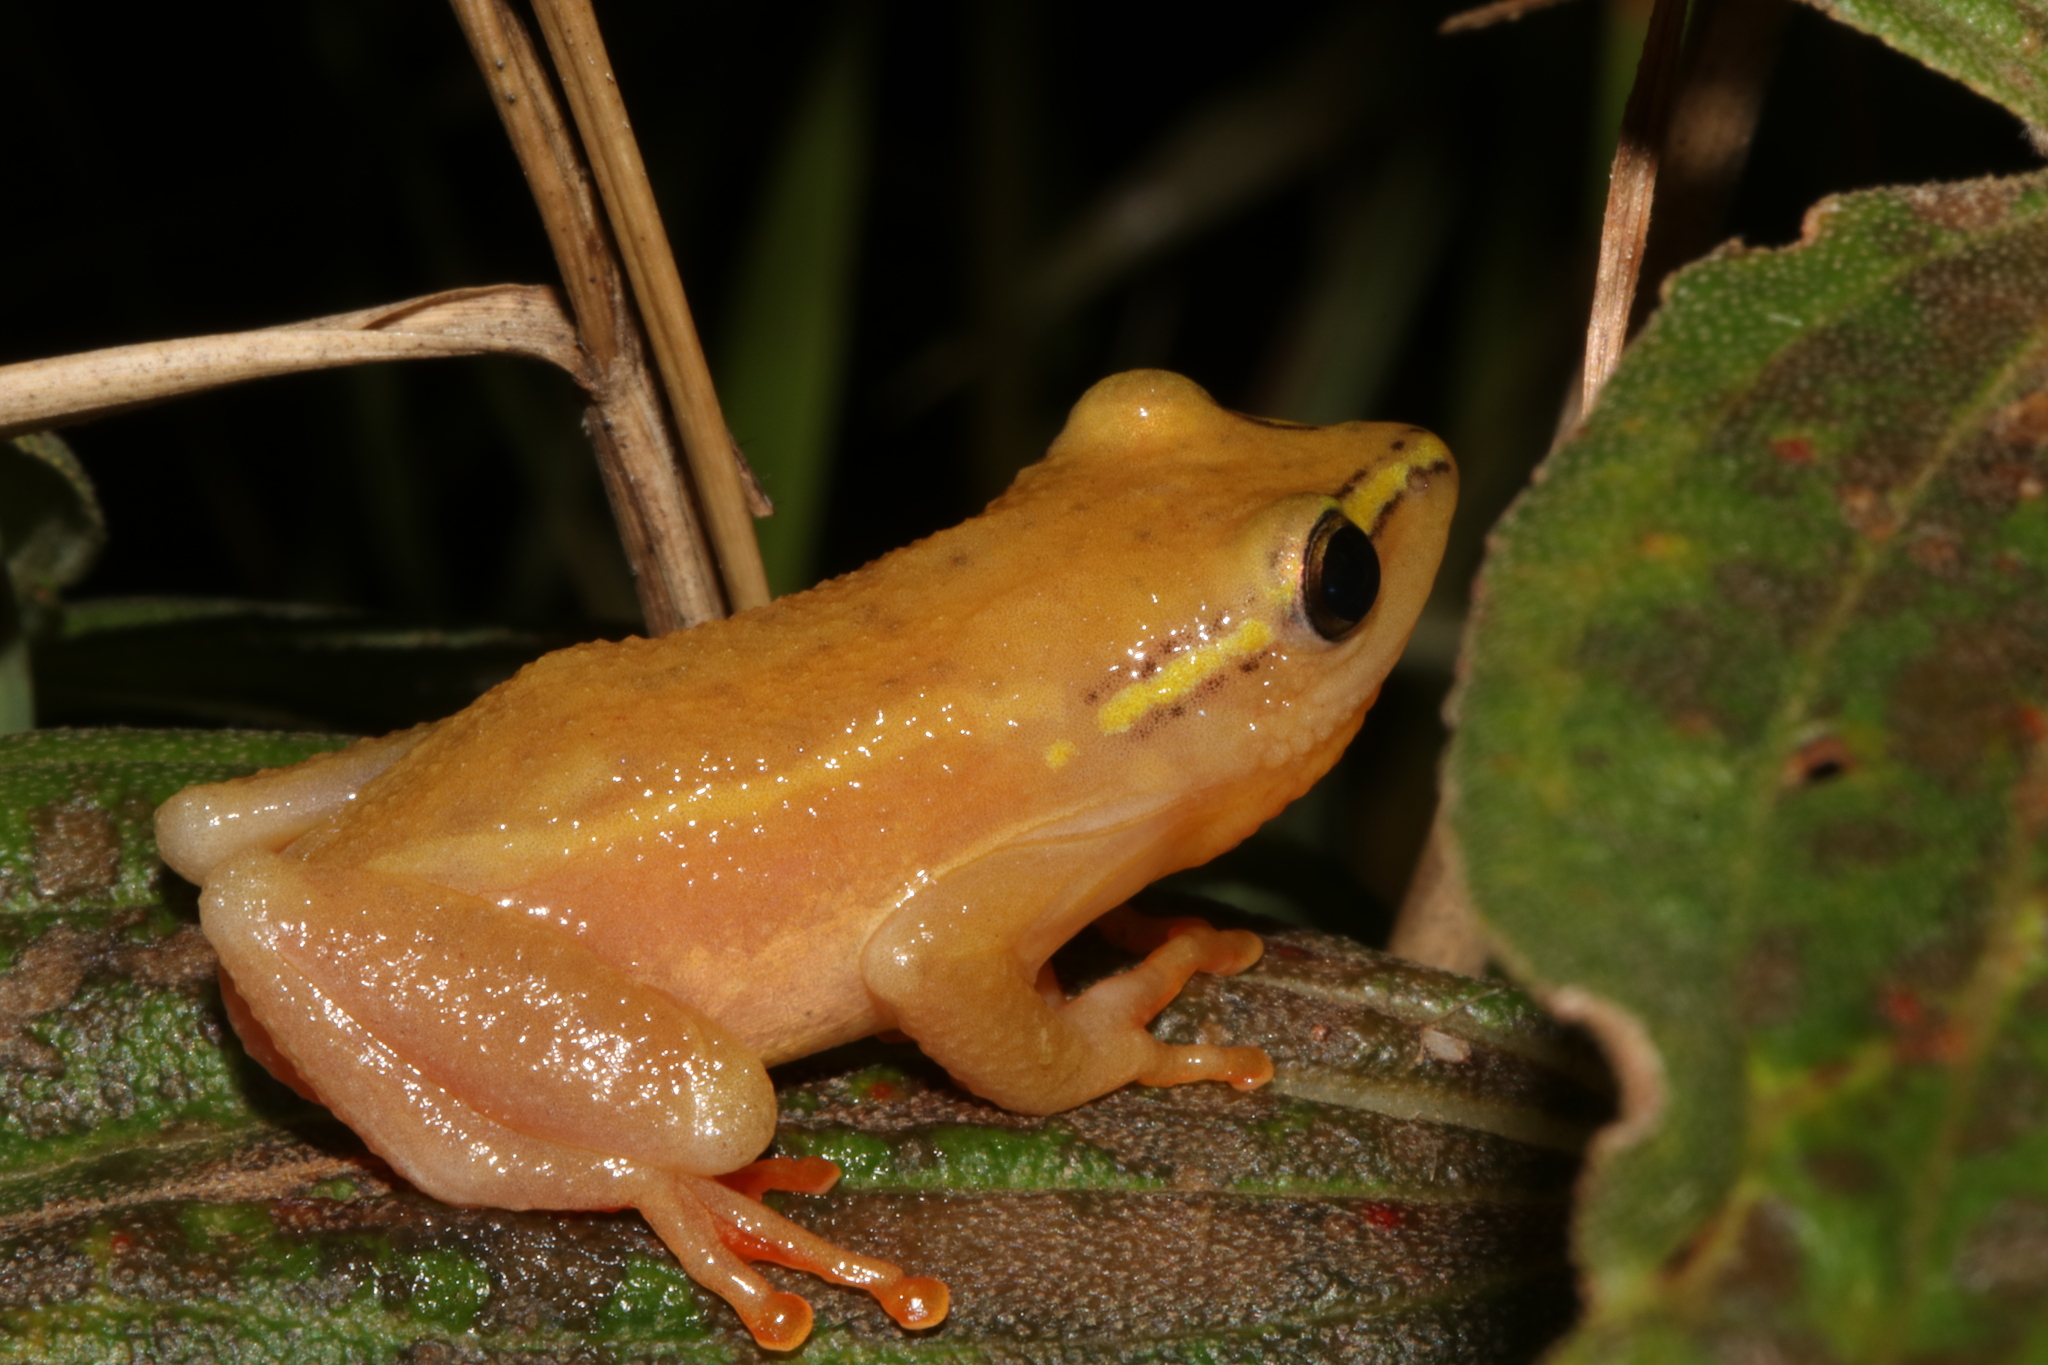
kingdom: Animalia
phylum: Chordata
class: Amphibia
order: Anura
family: Hyperoliidae
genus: Hyperolius
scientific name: Hyperolius substriatus
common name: Spotted reed frog
